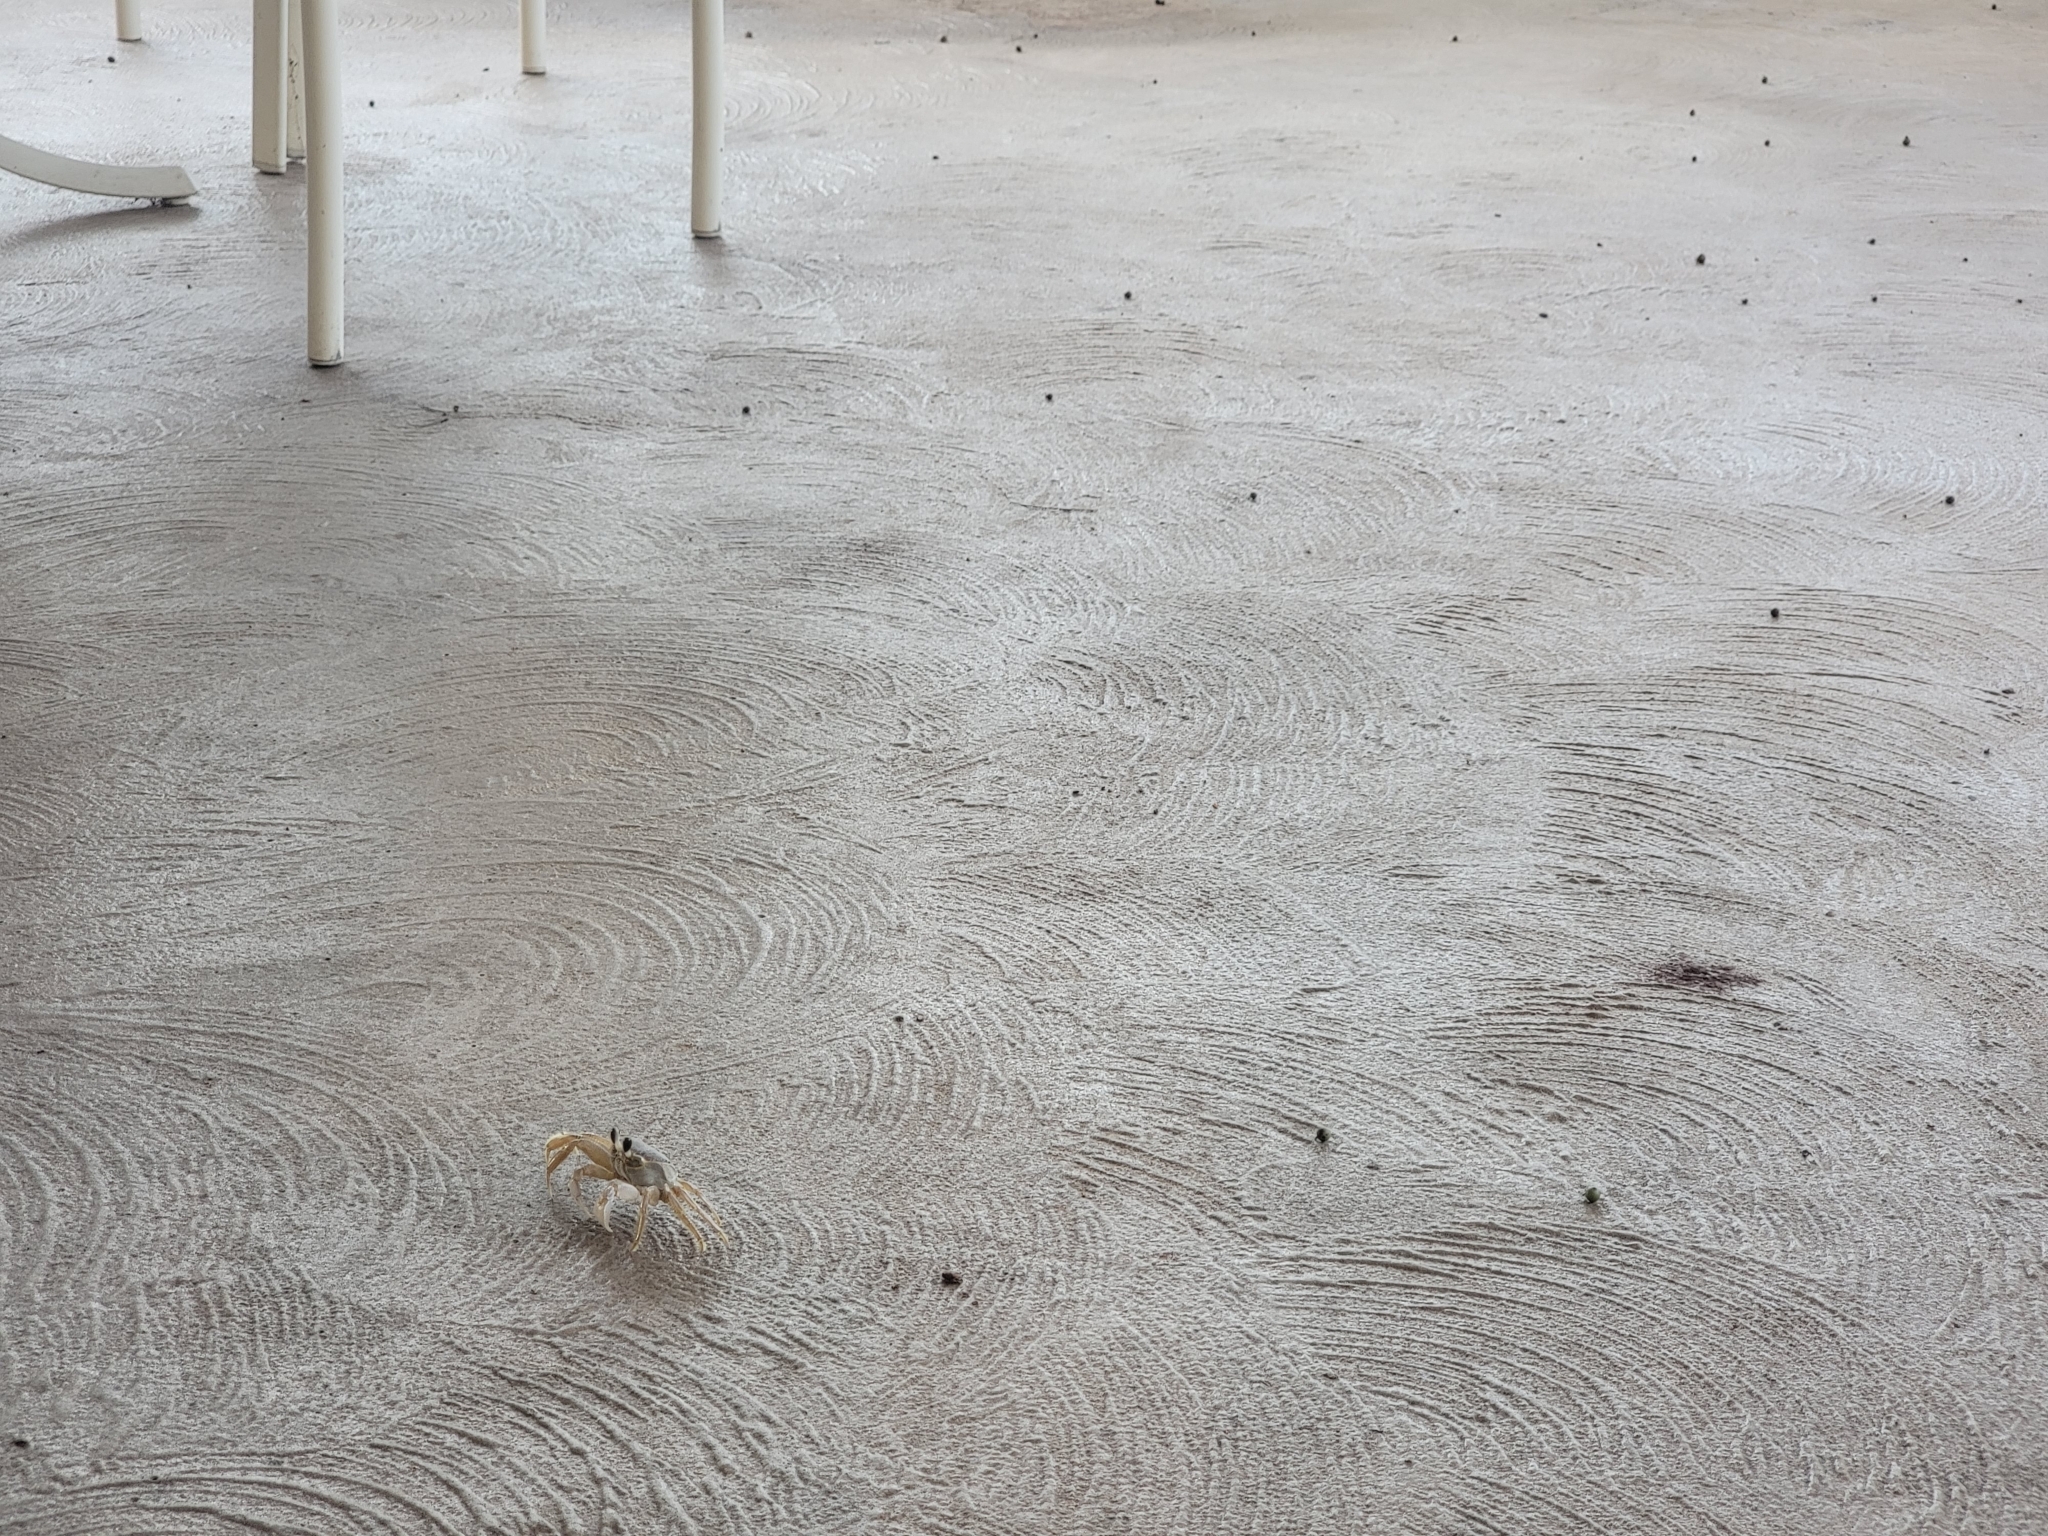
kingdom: Animalia
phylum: Arthropoda
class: Malacostraca
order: Decapoda
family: Ocypodidae
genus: Ocypode
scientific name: Ocypode quadrata
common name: Ghost crab
